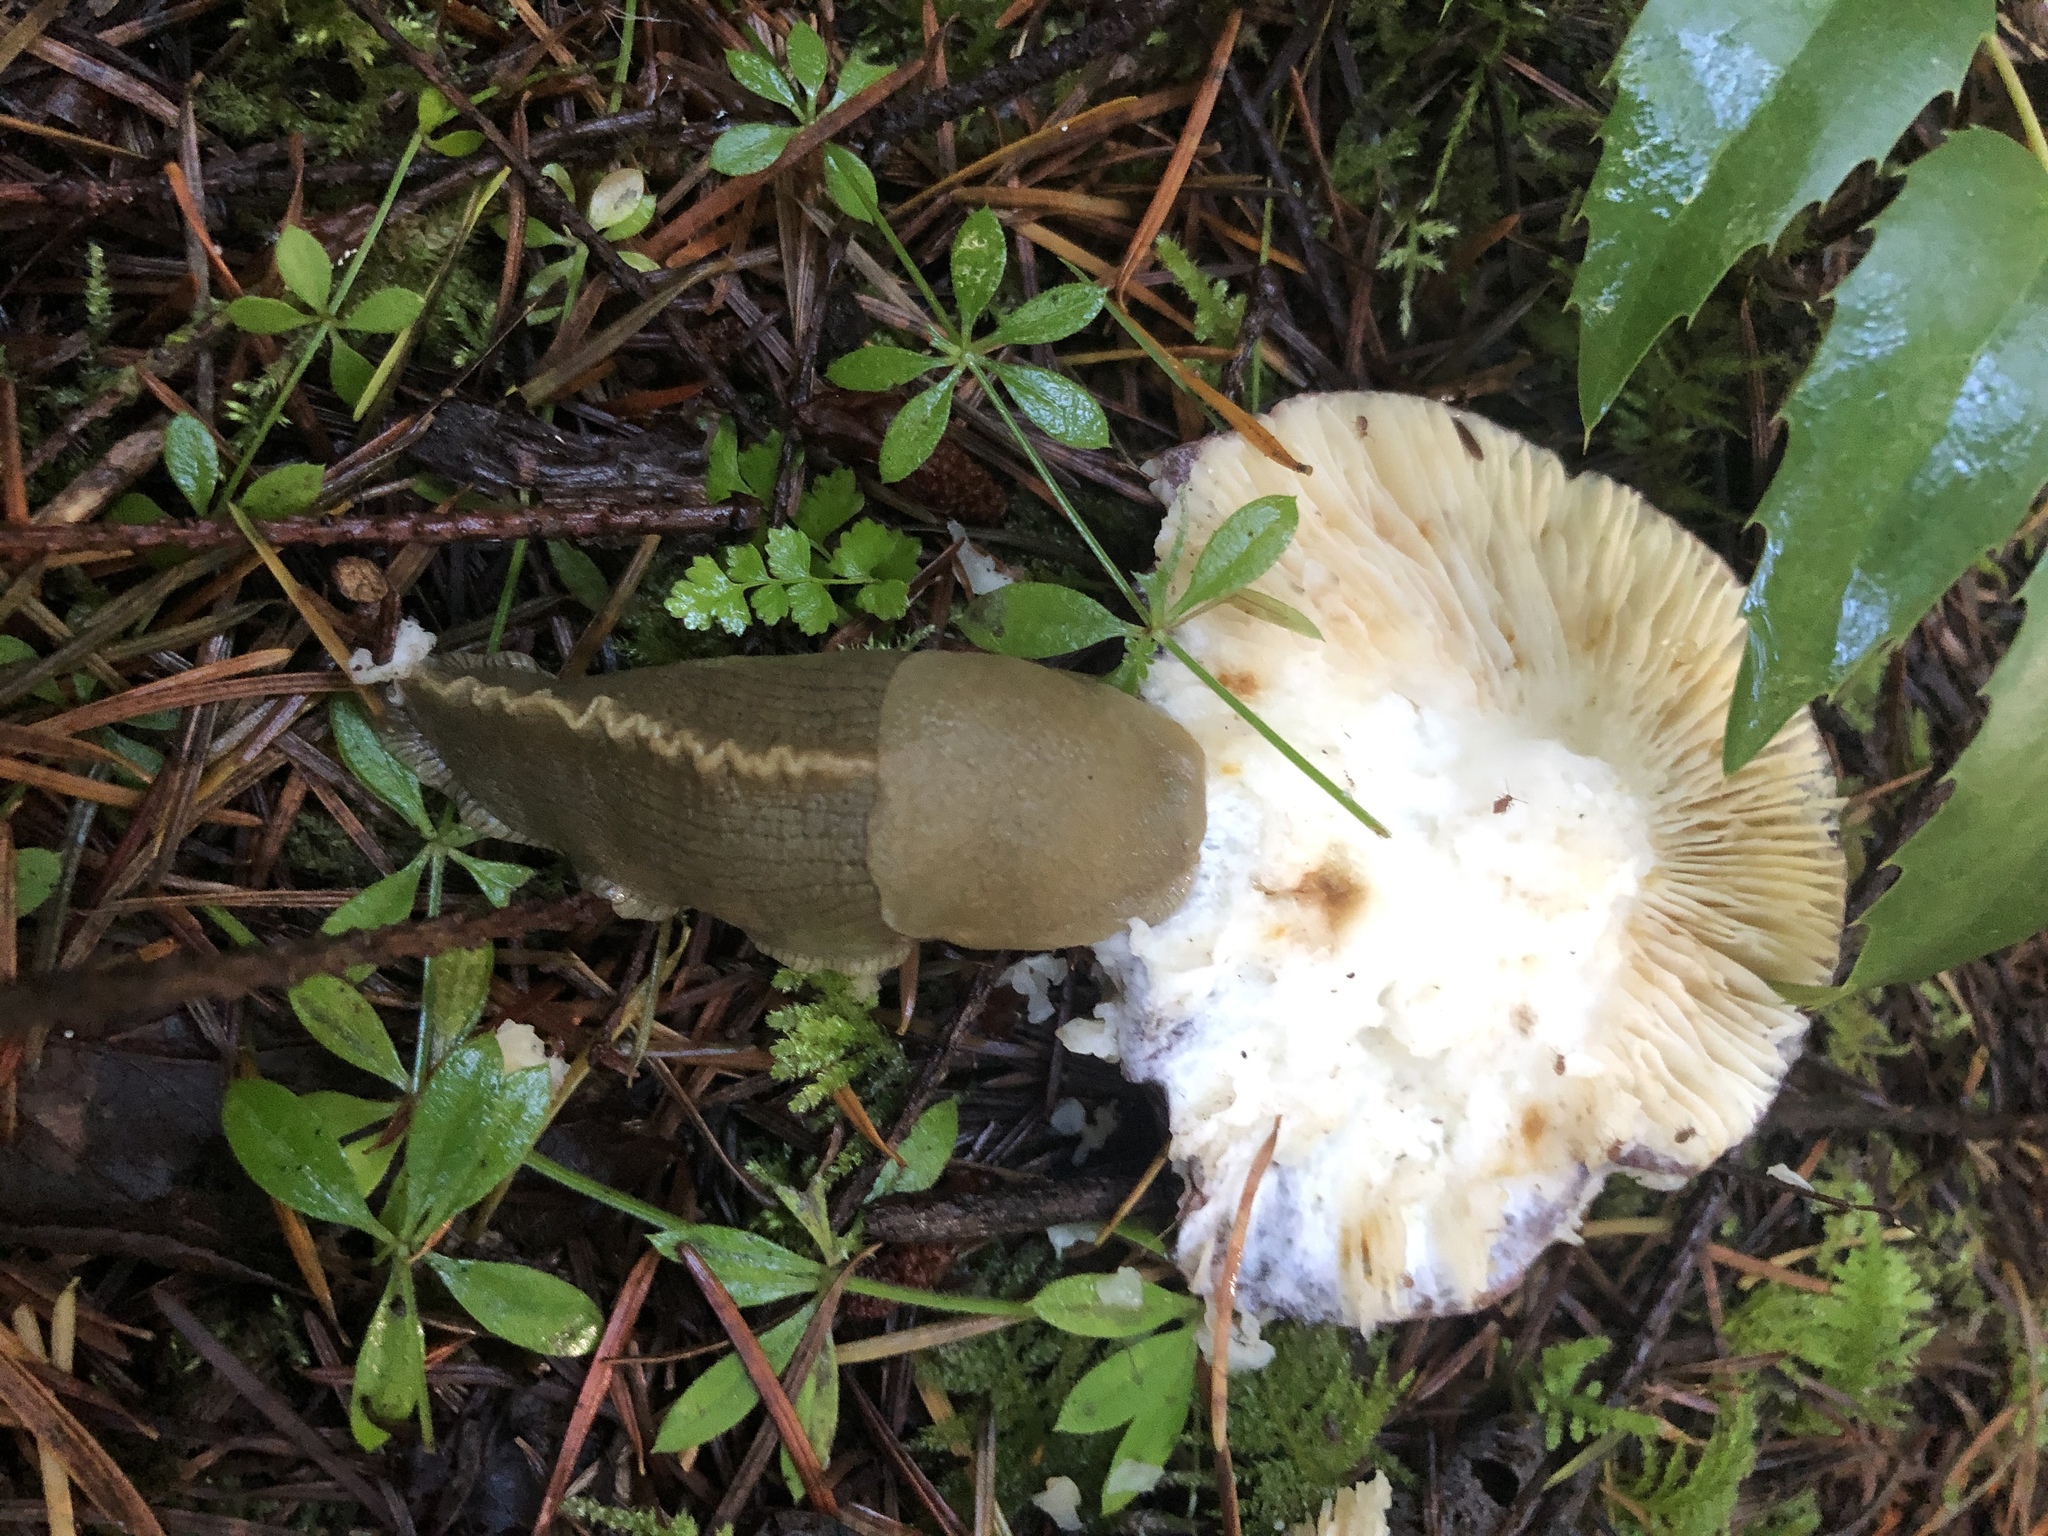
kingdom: Animalia
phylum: Mollusca
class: Gastropoda
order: Stylommatophora
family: Ariolimacidae
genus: Ariolimax
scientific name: Ariolimax columbianus
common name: Pacific banana slug
